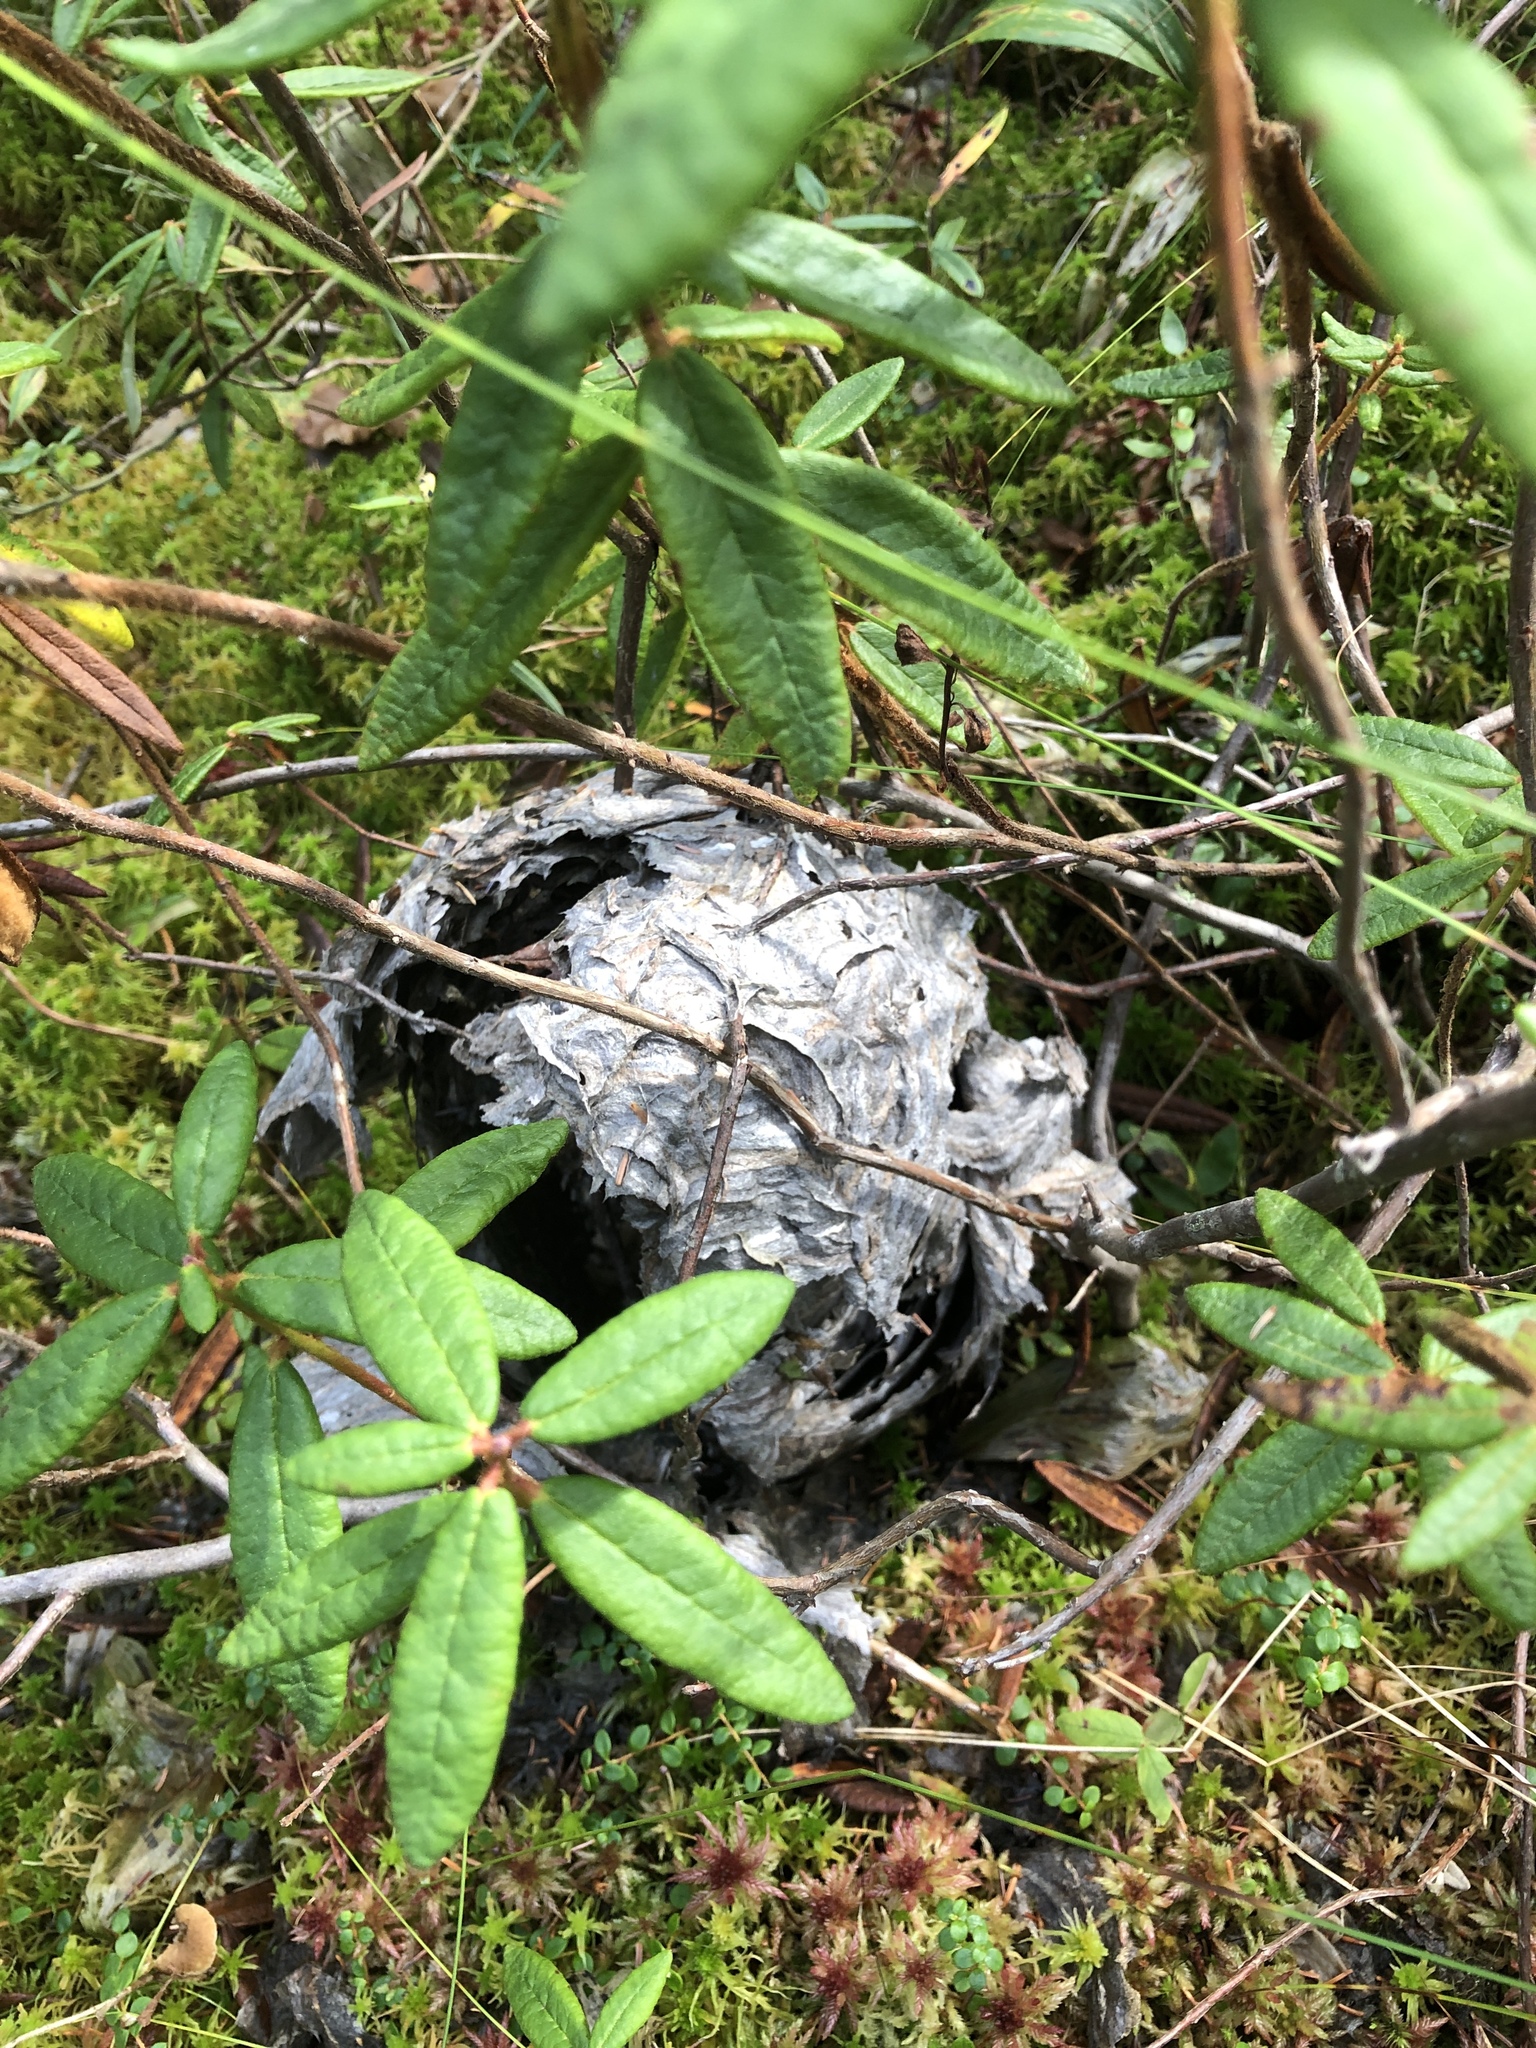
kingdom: Animalia
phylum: Arthropoda
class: Insecta
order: Hymenoptera
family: Vespidae
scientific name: Vespidae
